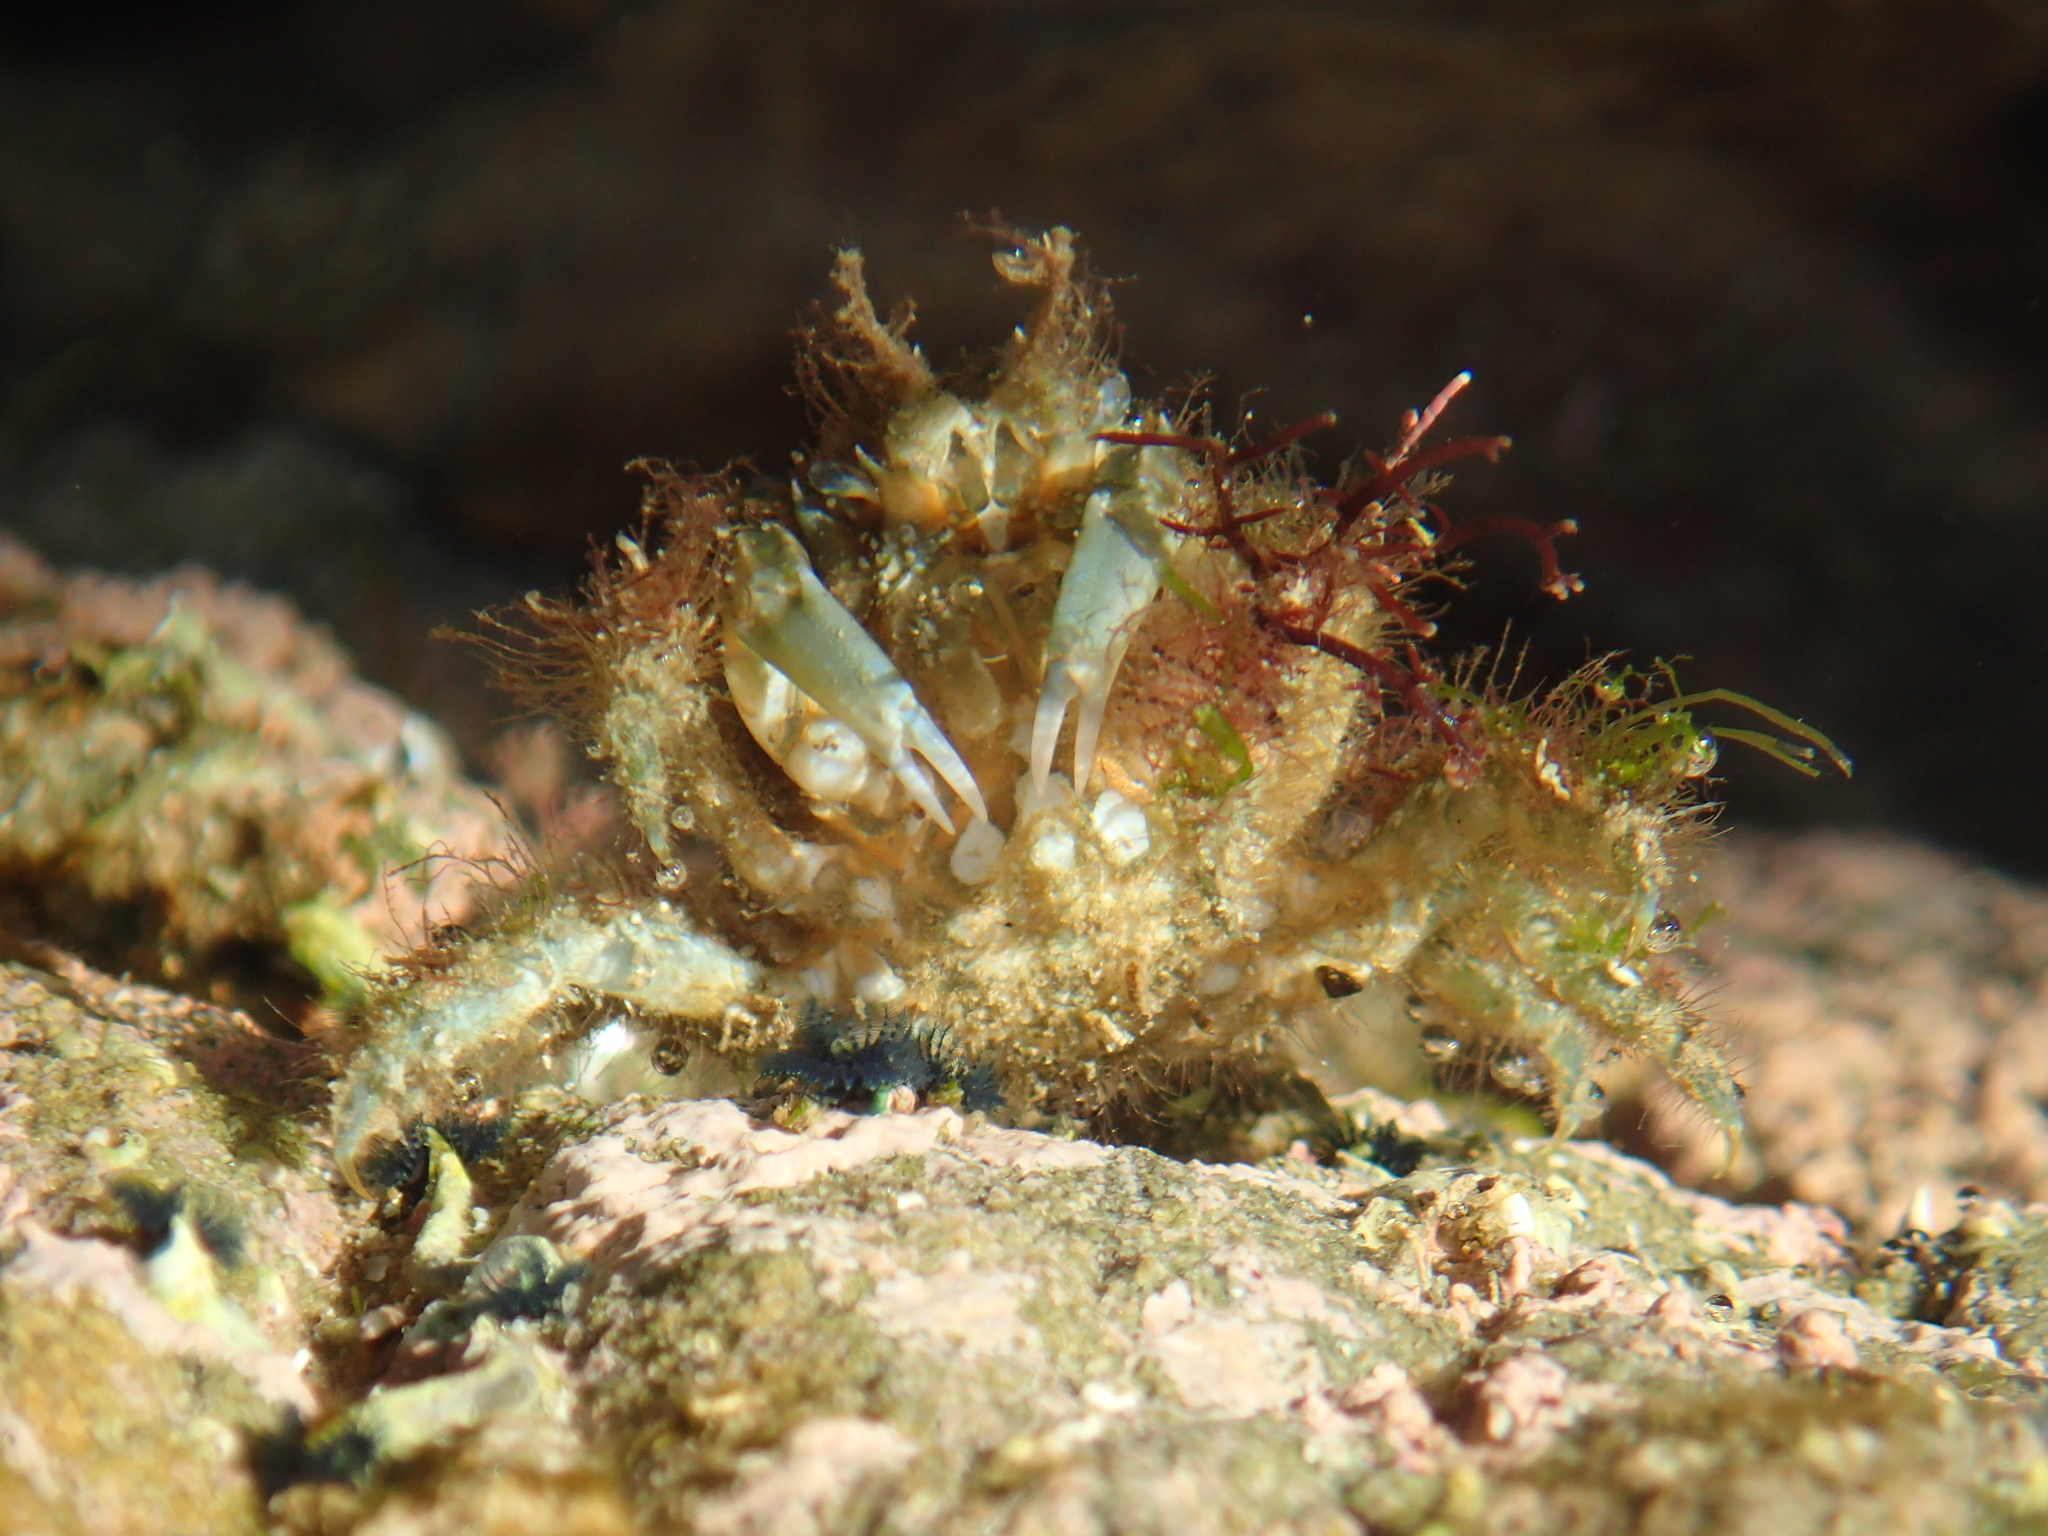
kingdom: Animalia
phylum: Arthropoda
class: Malacostraca
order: Decapoda
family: Majidae
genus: Notomithrax
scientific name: Notomithrax ursus
